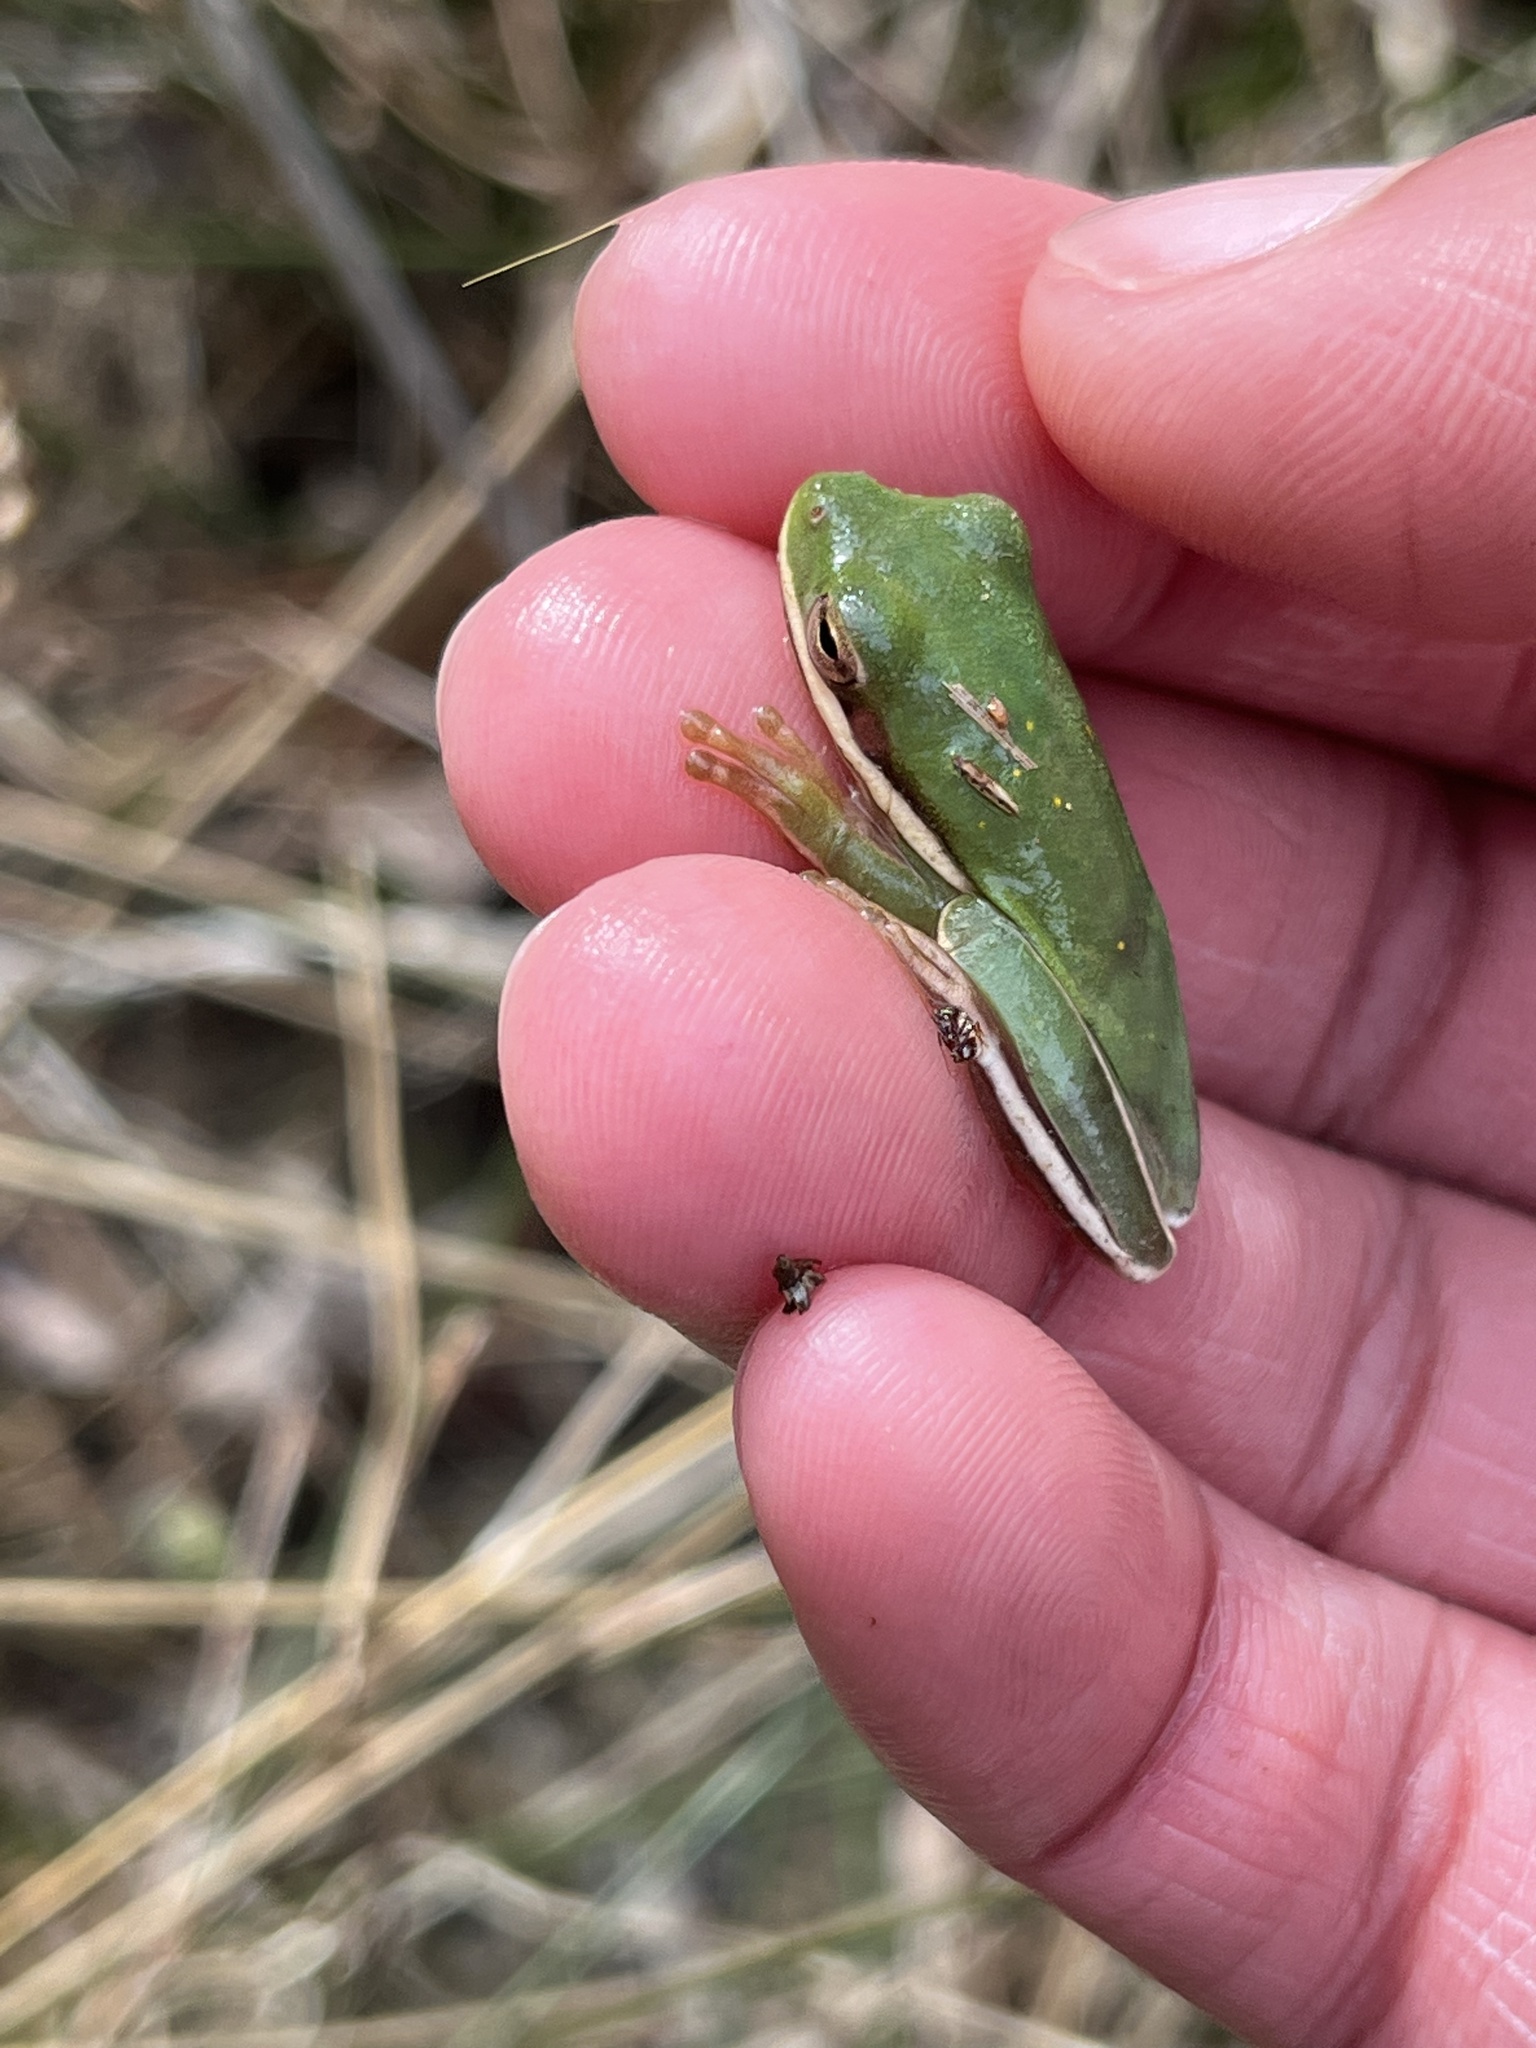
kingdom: Animalia
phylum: Chordata
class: Amphibia
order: Anura
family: Hylidae
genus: Dryophytes
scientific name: Dryophytes cinereus
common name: Green treefrog
